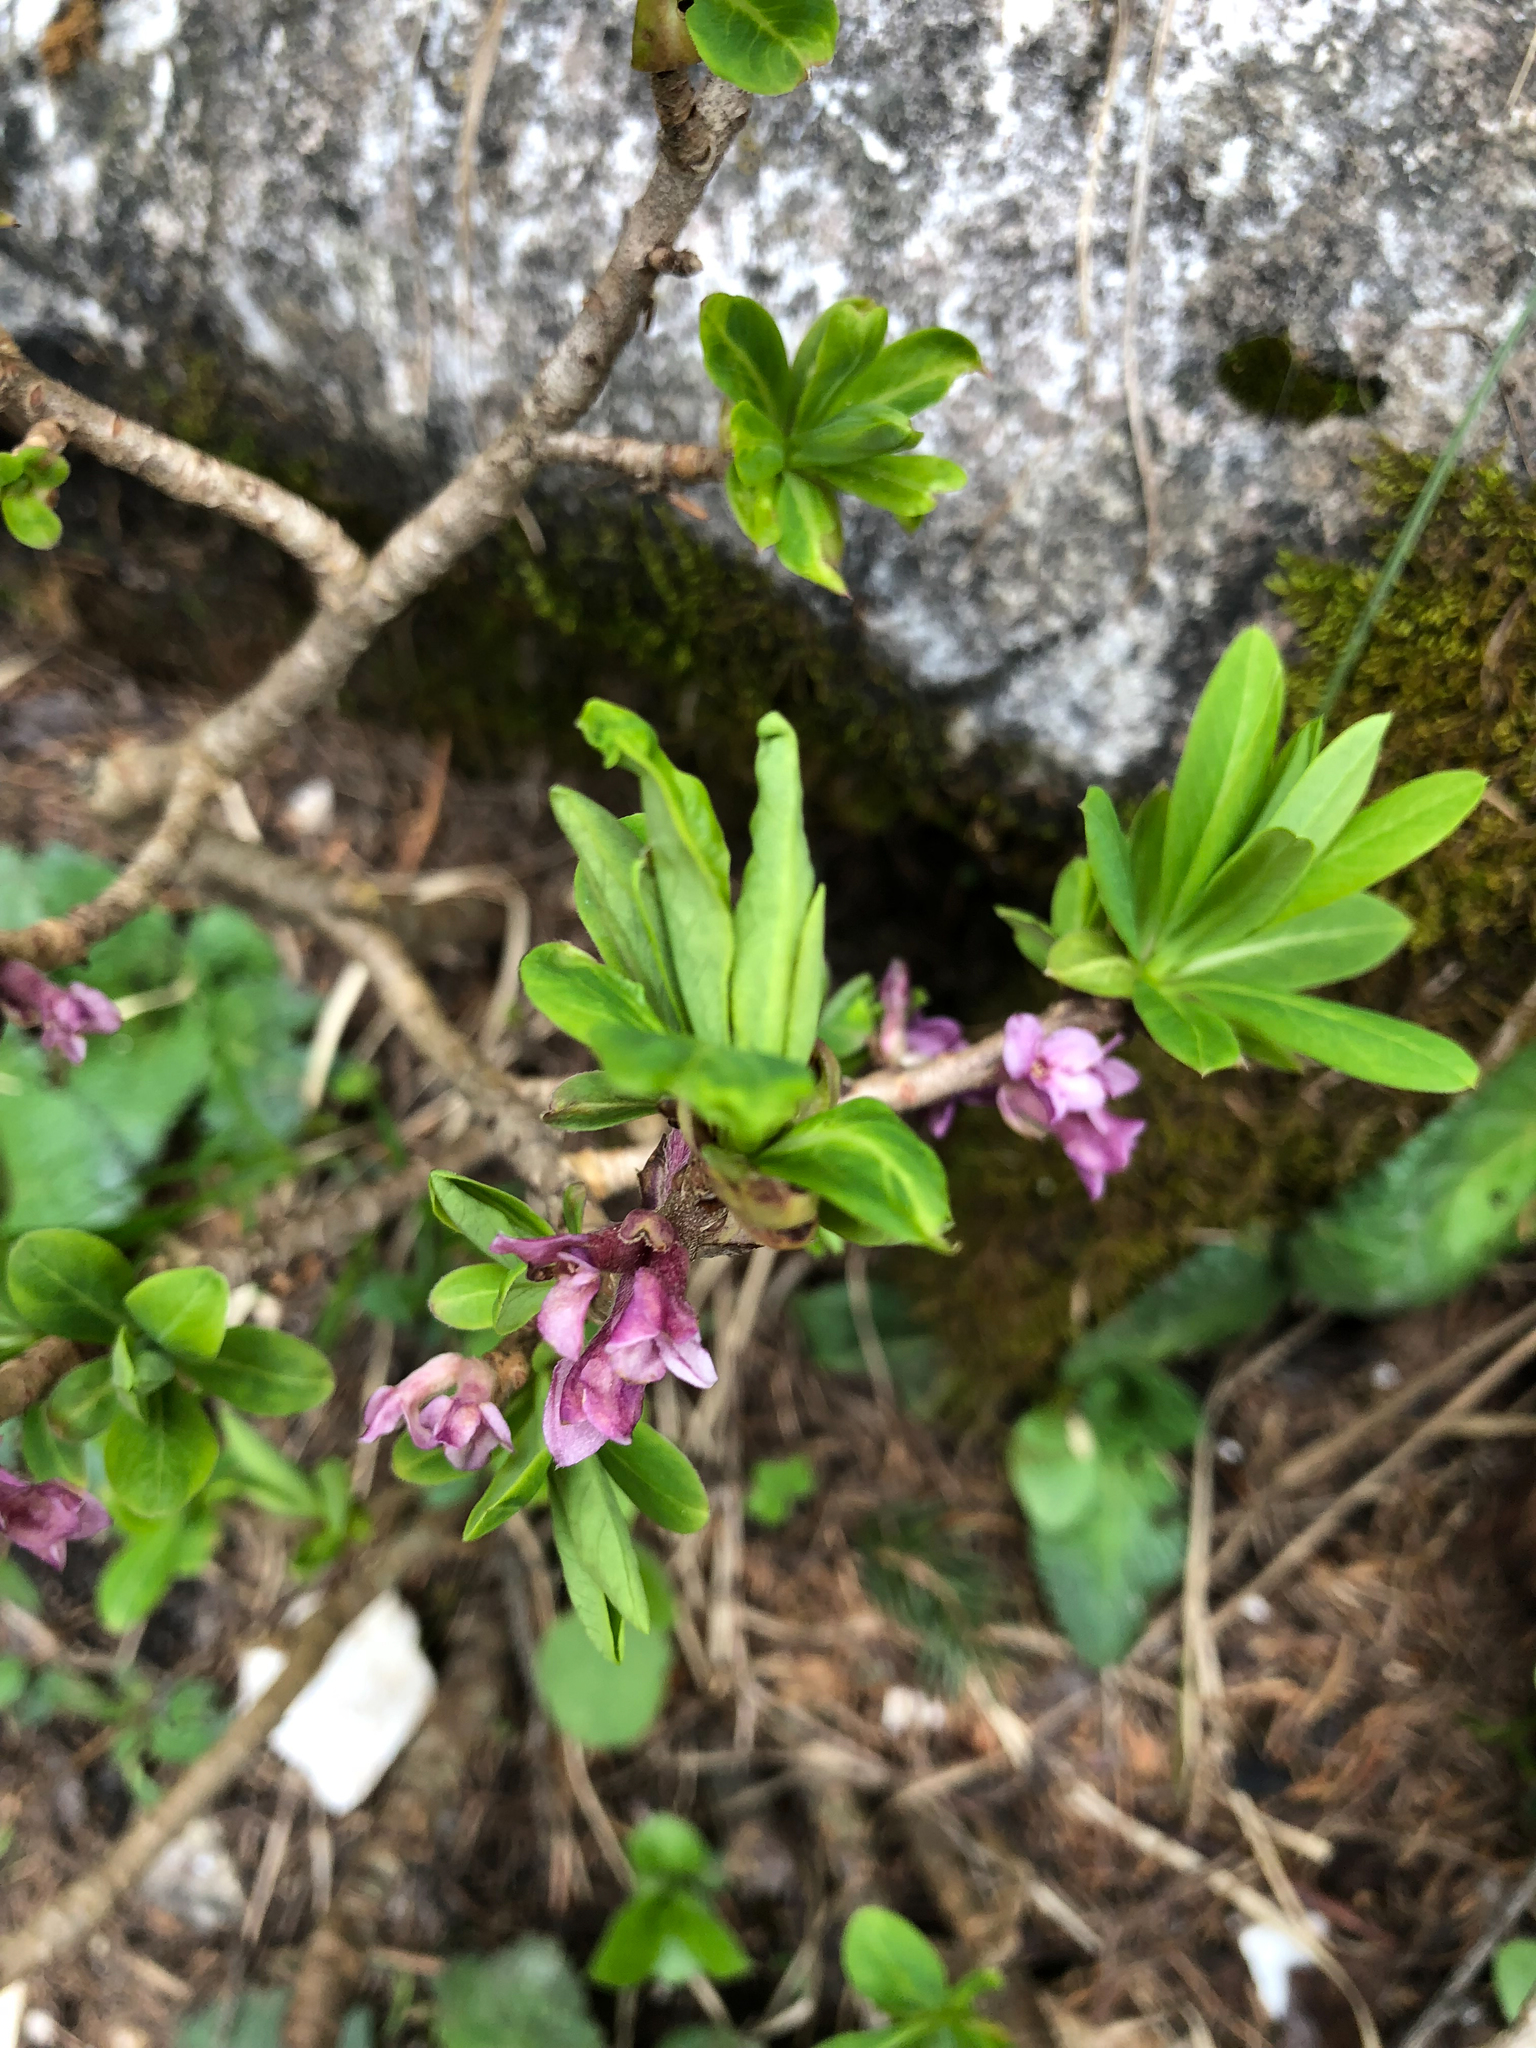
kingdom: Plantae
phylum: Tracheophyta
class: Magnoliopsida
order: Malvales
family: Thymelaeaceae
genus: Daphne
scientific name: Daphne mezereum
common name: Mezereon
